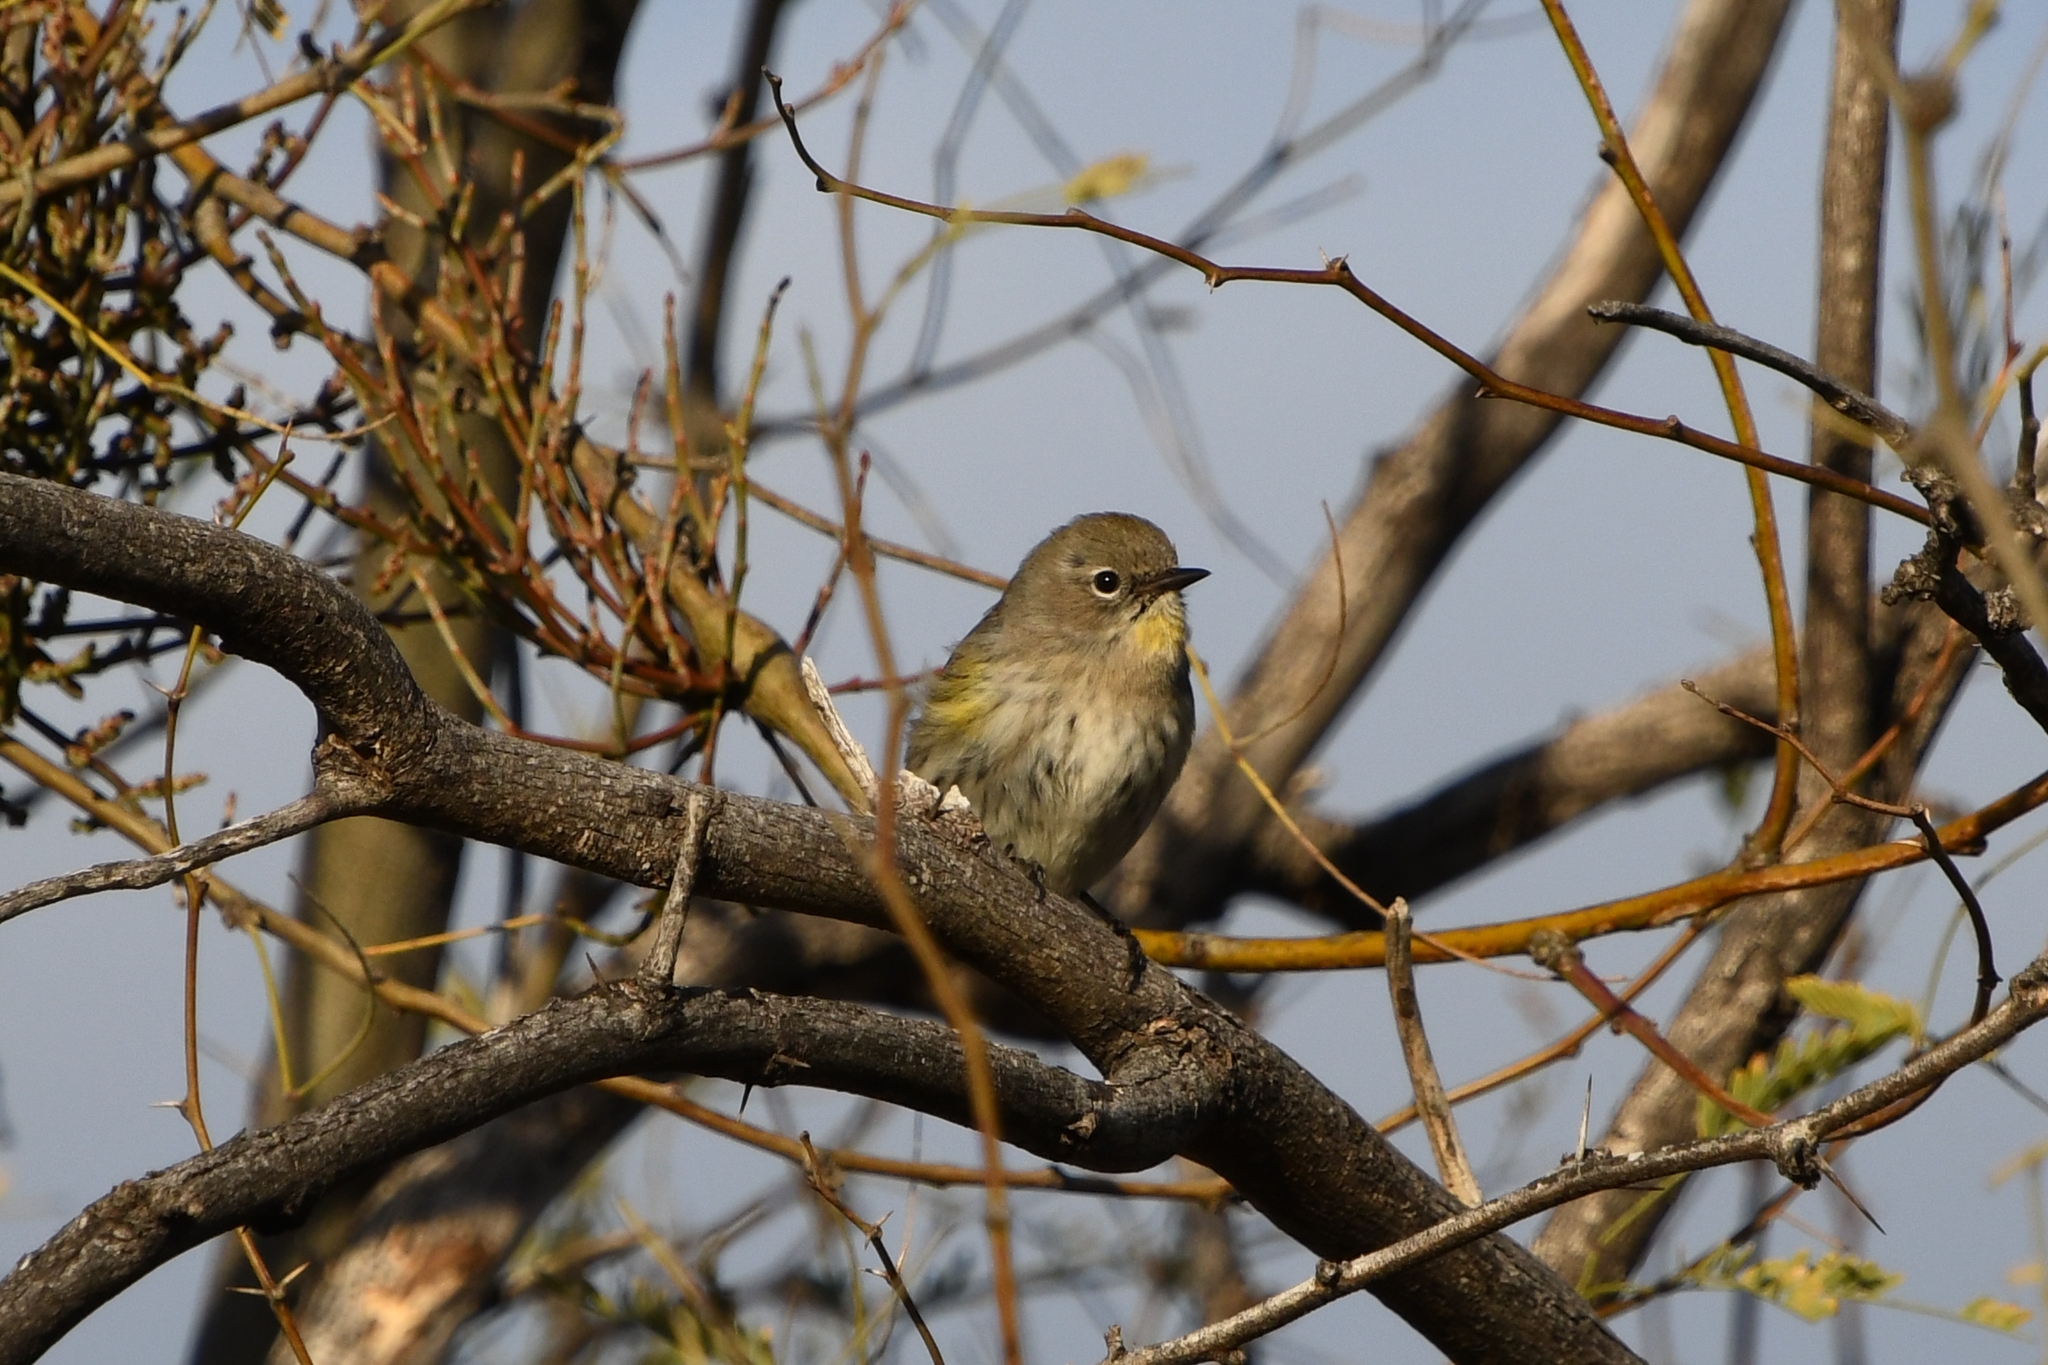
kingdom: Animalia
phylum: Chordata
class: Aves
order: Passeriformes
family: Parulidae
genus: Setophaga
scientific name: Setophaga coronata
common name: Myrtle warbler
